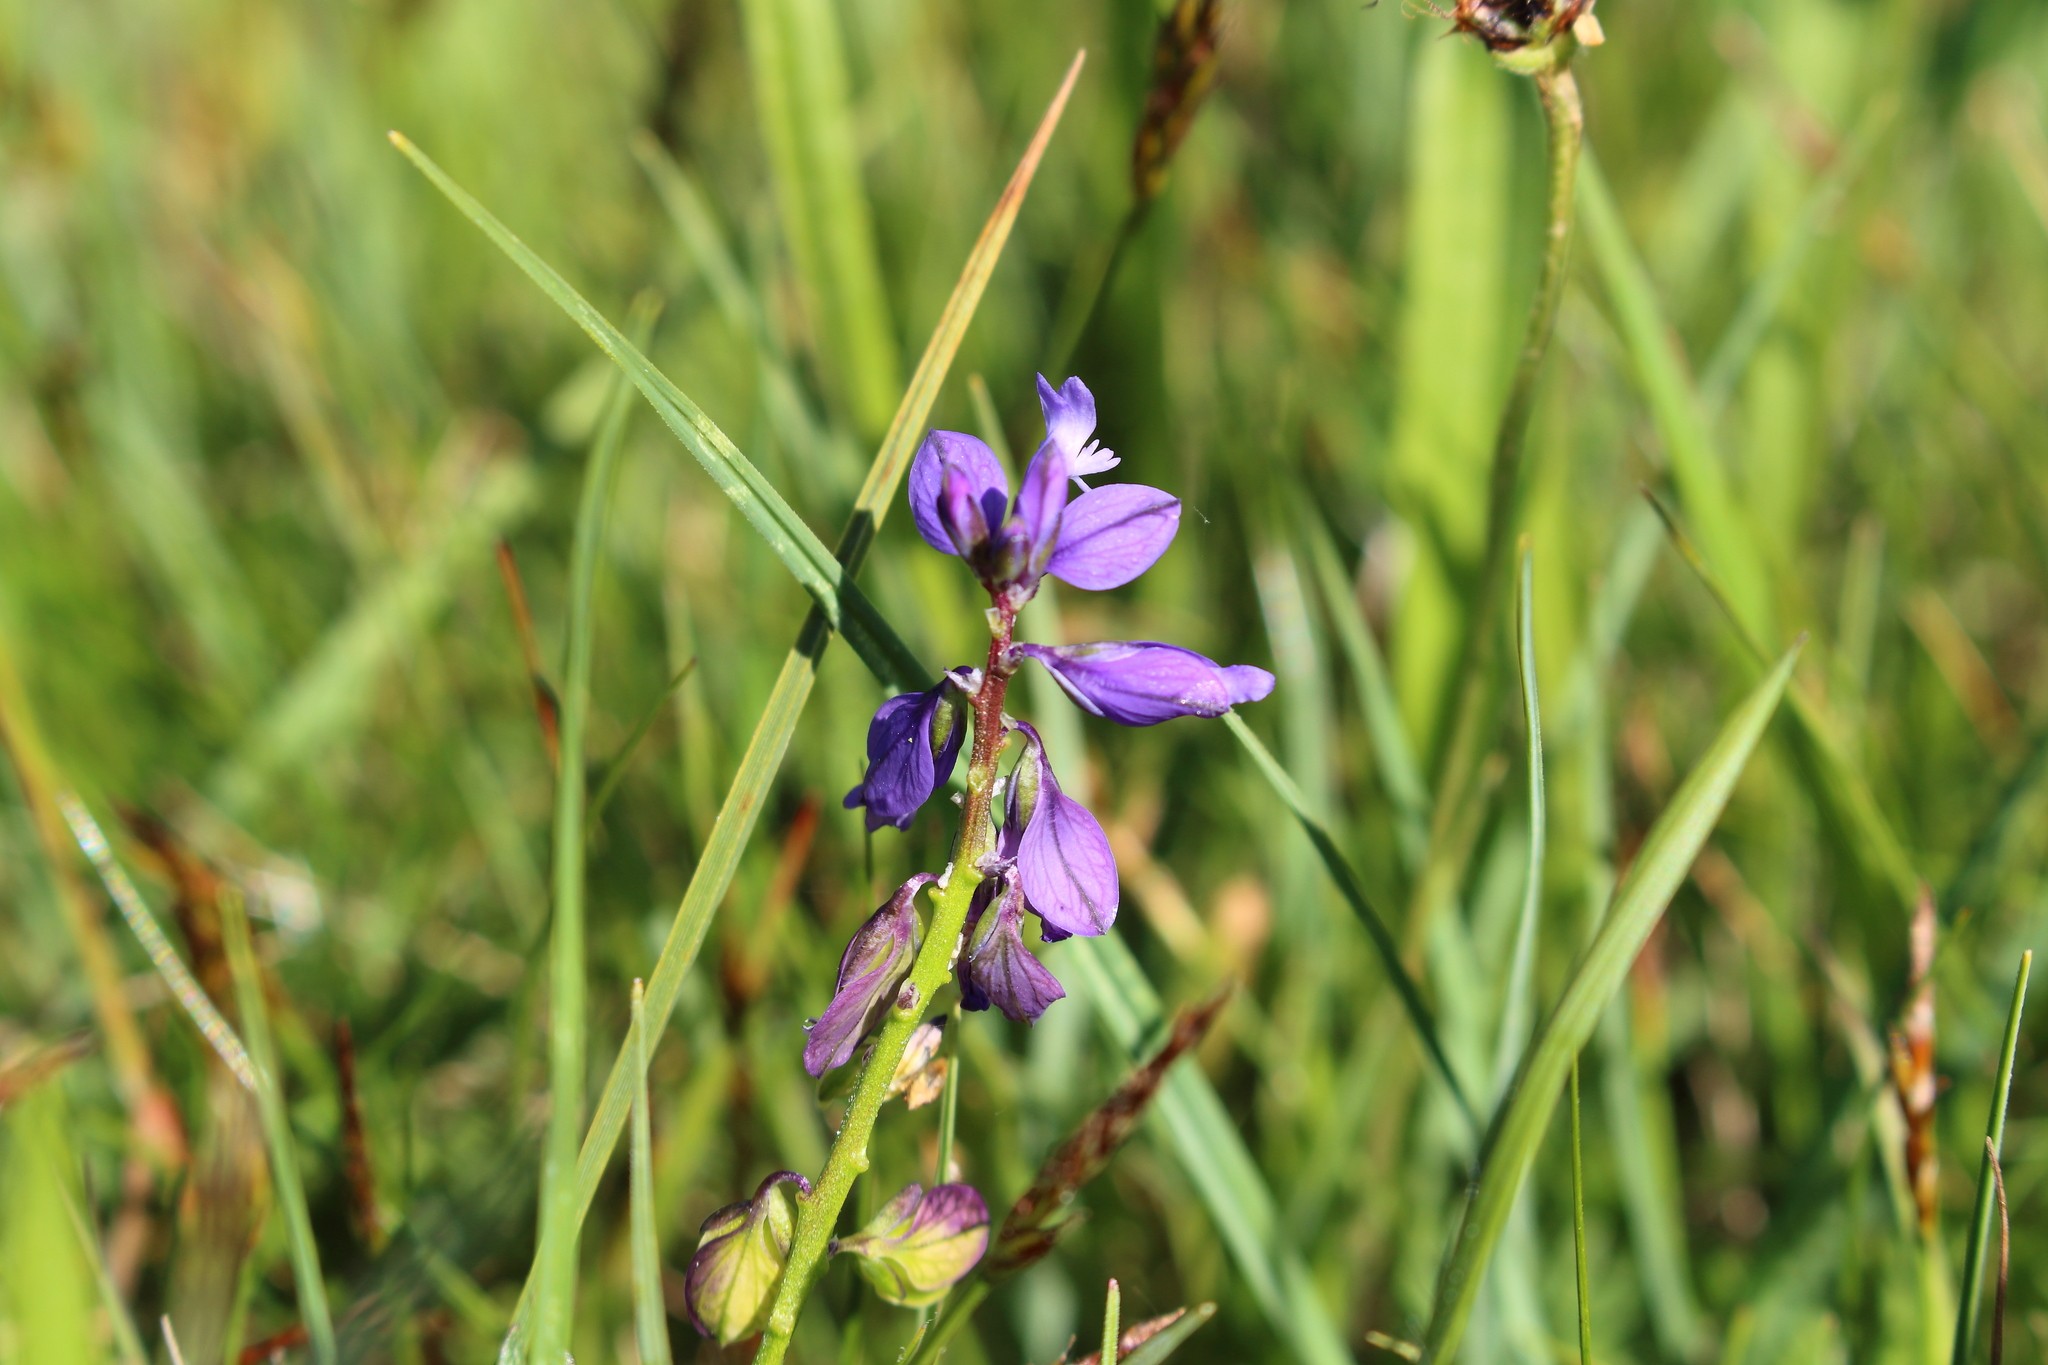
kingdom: Plantae
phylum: Tracheophyta
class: Magnoliopsida
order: Fabales
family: Polygalaceae
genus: Polygala
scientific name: Polygala vulgaris
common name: Common milkwort
